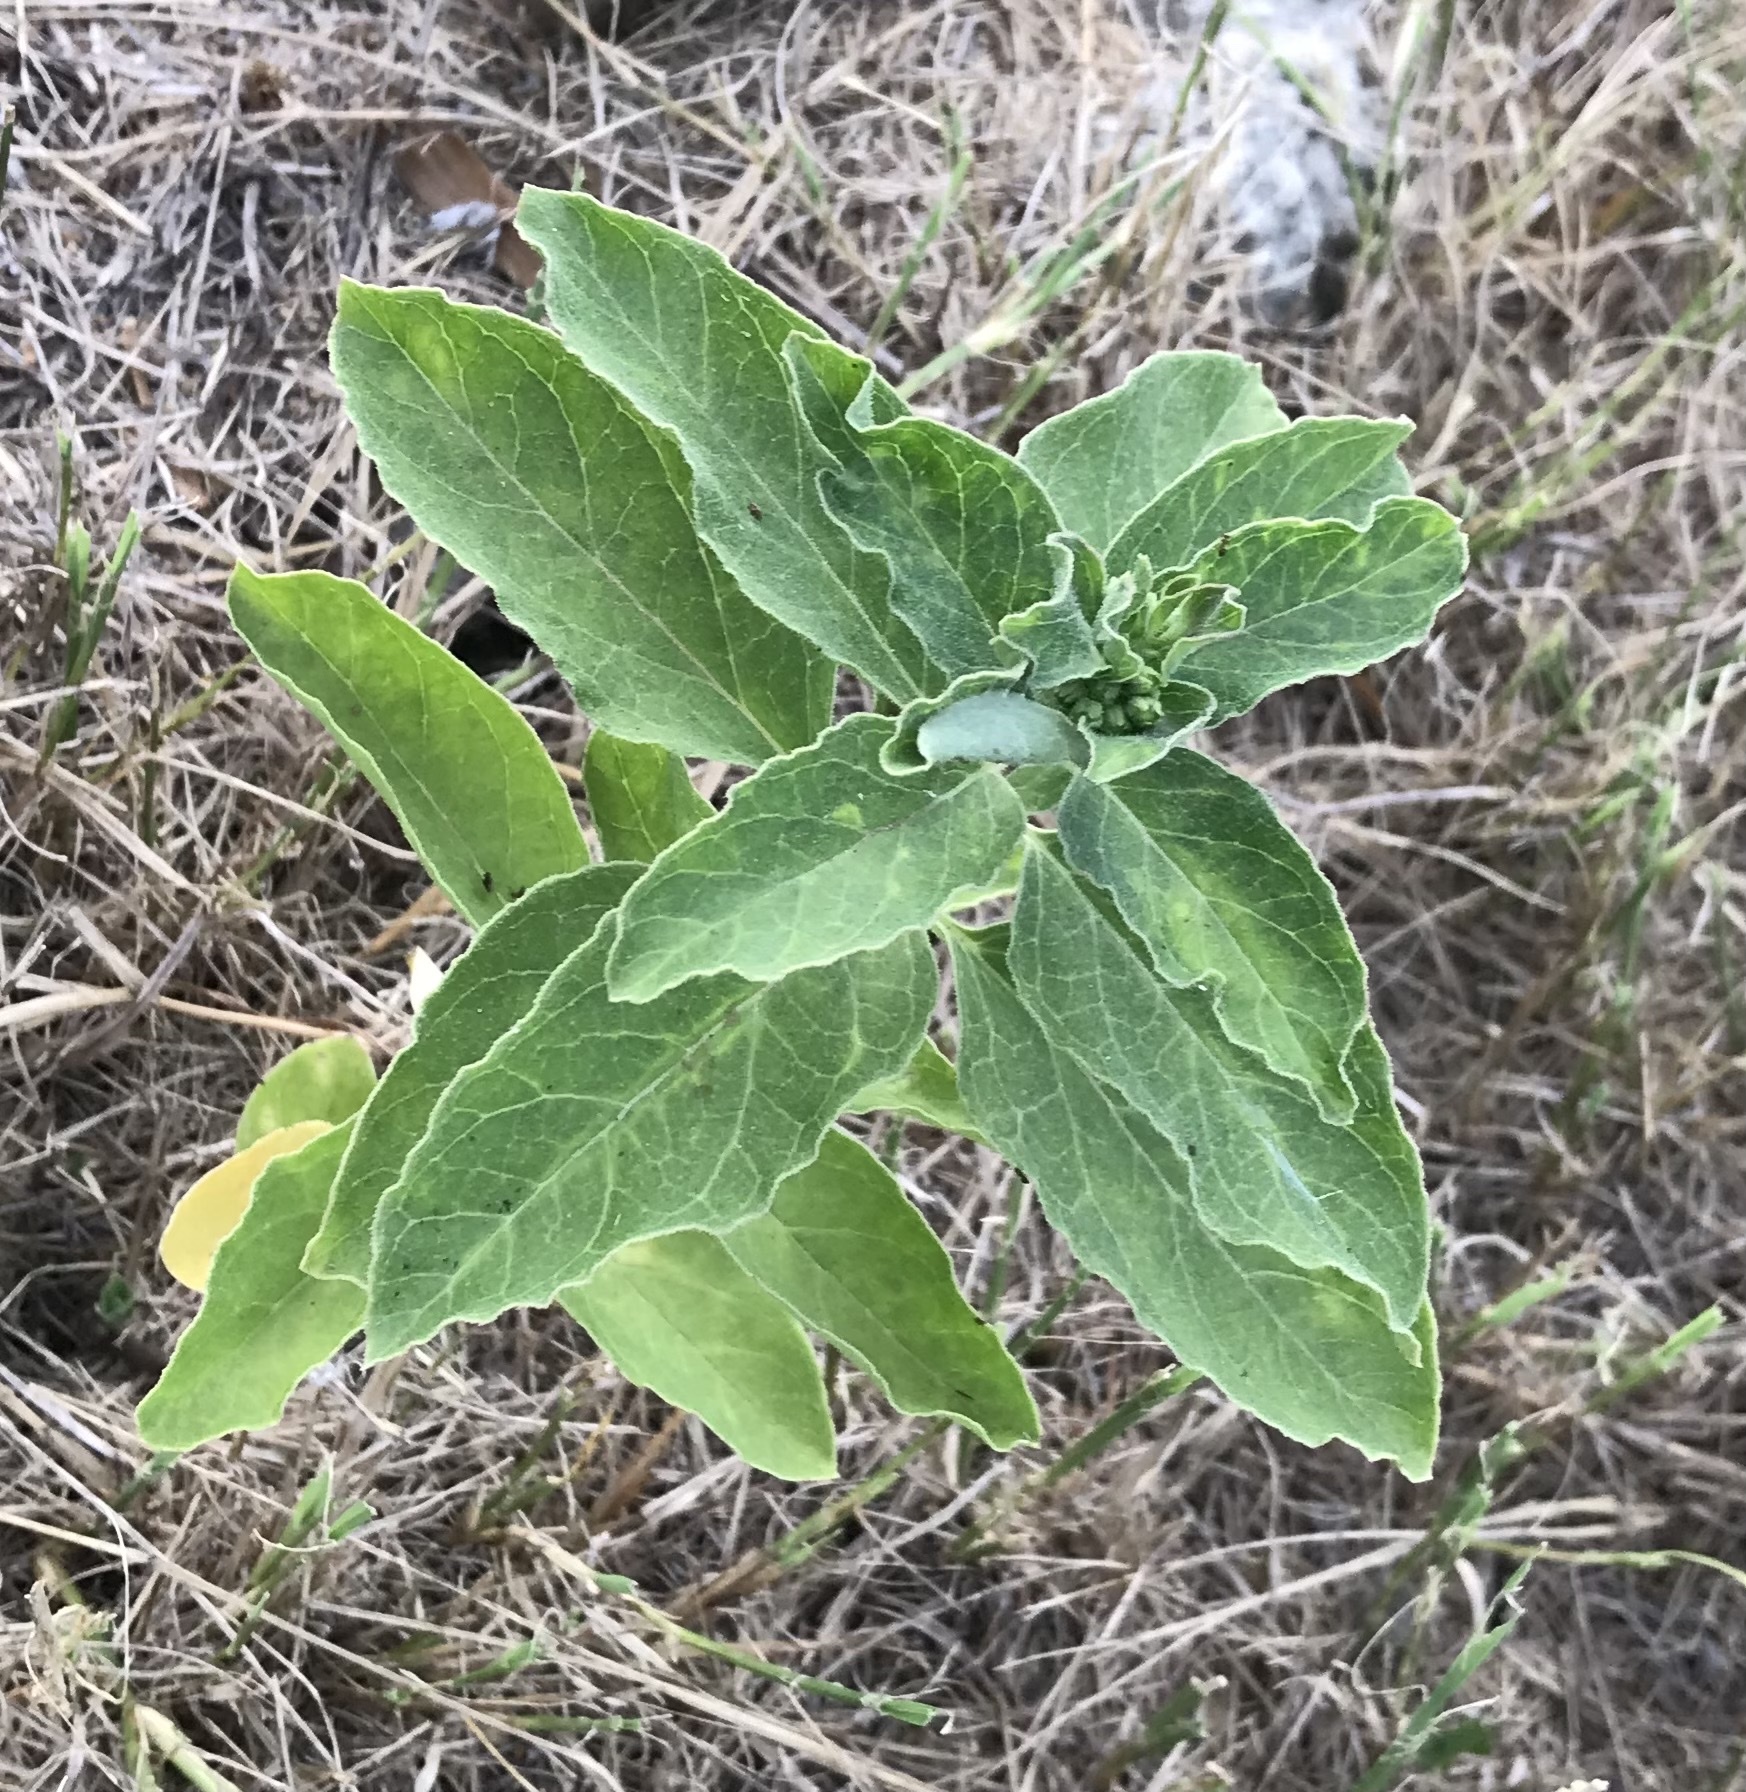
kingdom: Plantae
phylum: Tracheophyta
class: Magnoliopsida
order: Gentianales
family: Apocynaceae
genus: Asclepias
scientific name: Asclepias oenotheroides
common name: Zizotes milkweed
